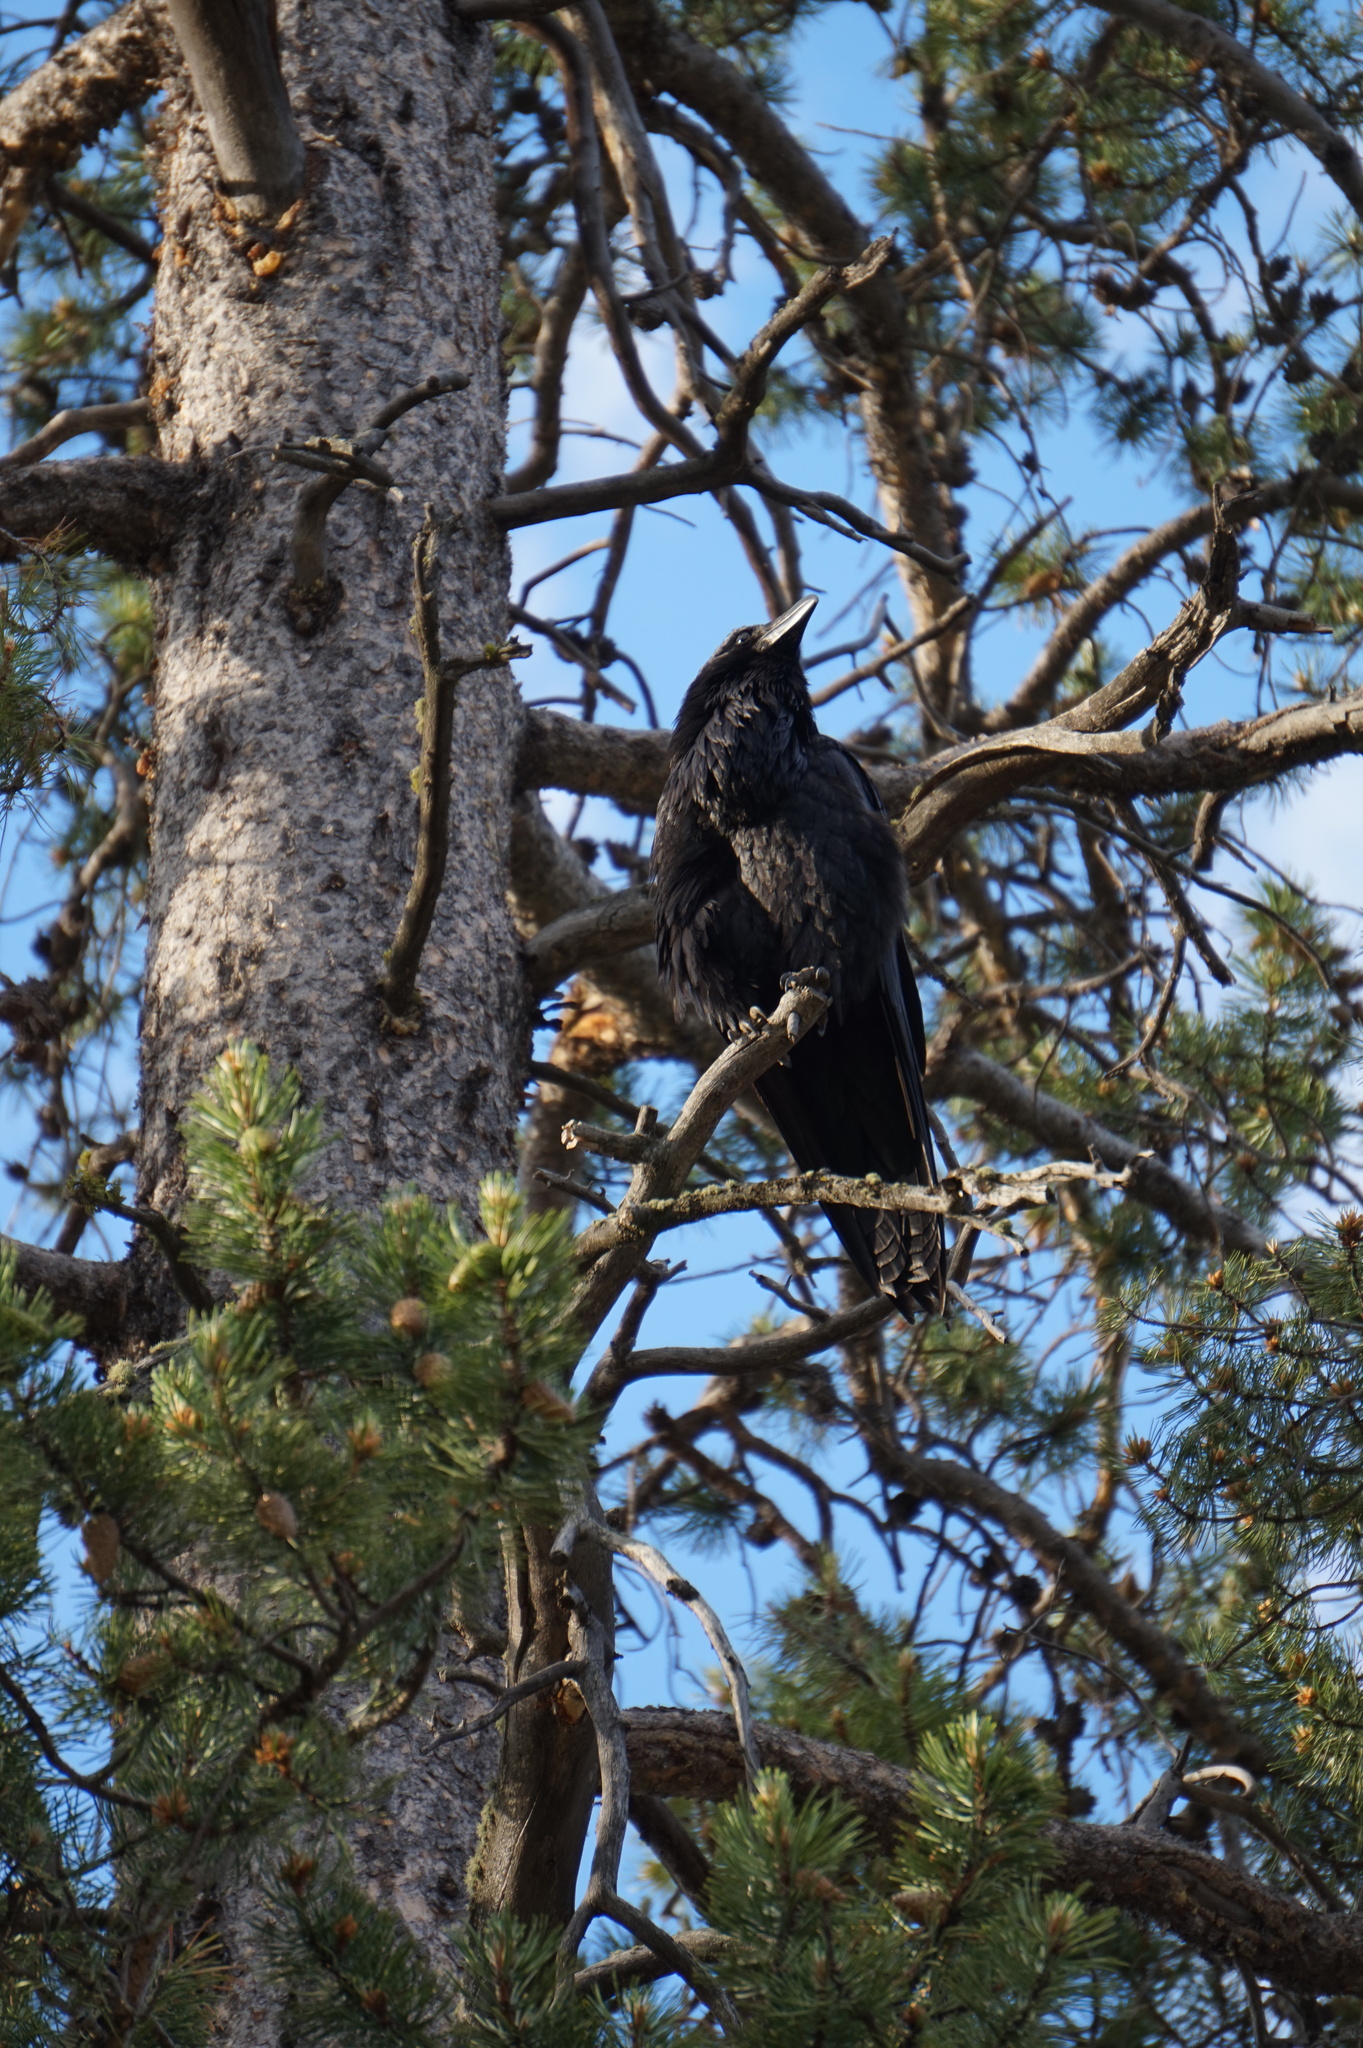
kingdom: Animalia
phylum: Chordata
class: Aves
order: Passeriformes
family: Corvidae
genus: Corvus
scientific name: Corvus corax
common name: Common raven
